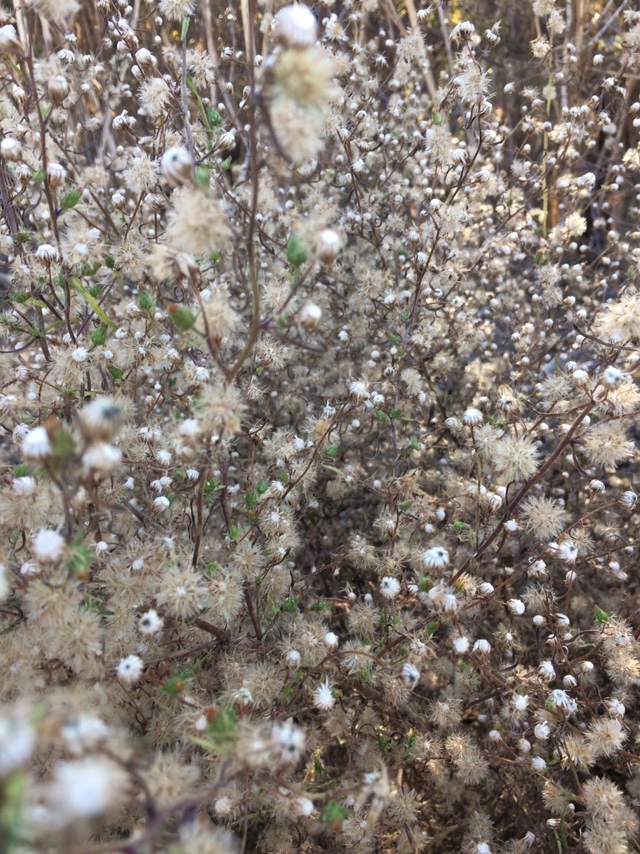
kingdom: Plantae
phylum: Tracheophyta
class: Magnoliopsida
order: Asterales
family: Asteraceae
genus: Dittrichia
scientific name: Dittrichia graveolens
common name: Stinking fleabane
